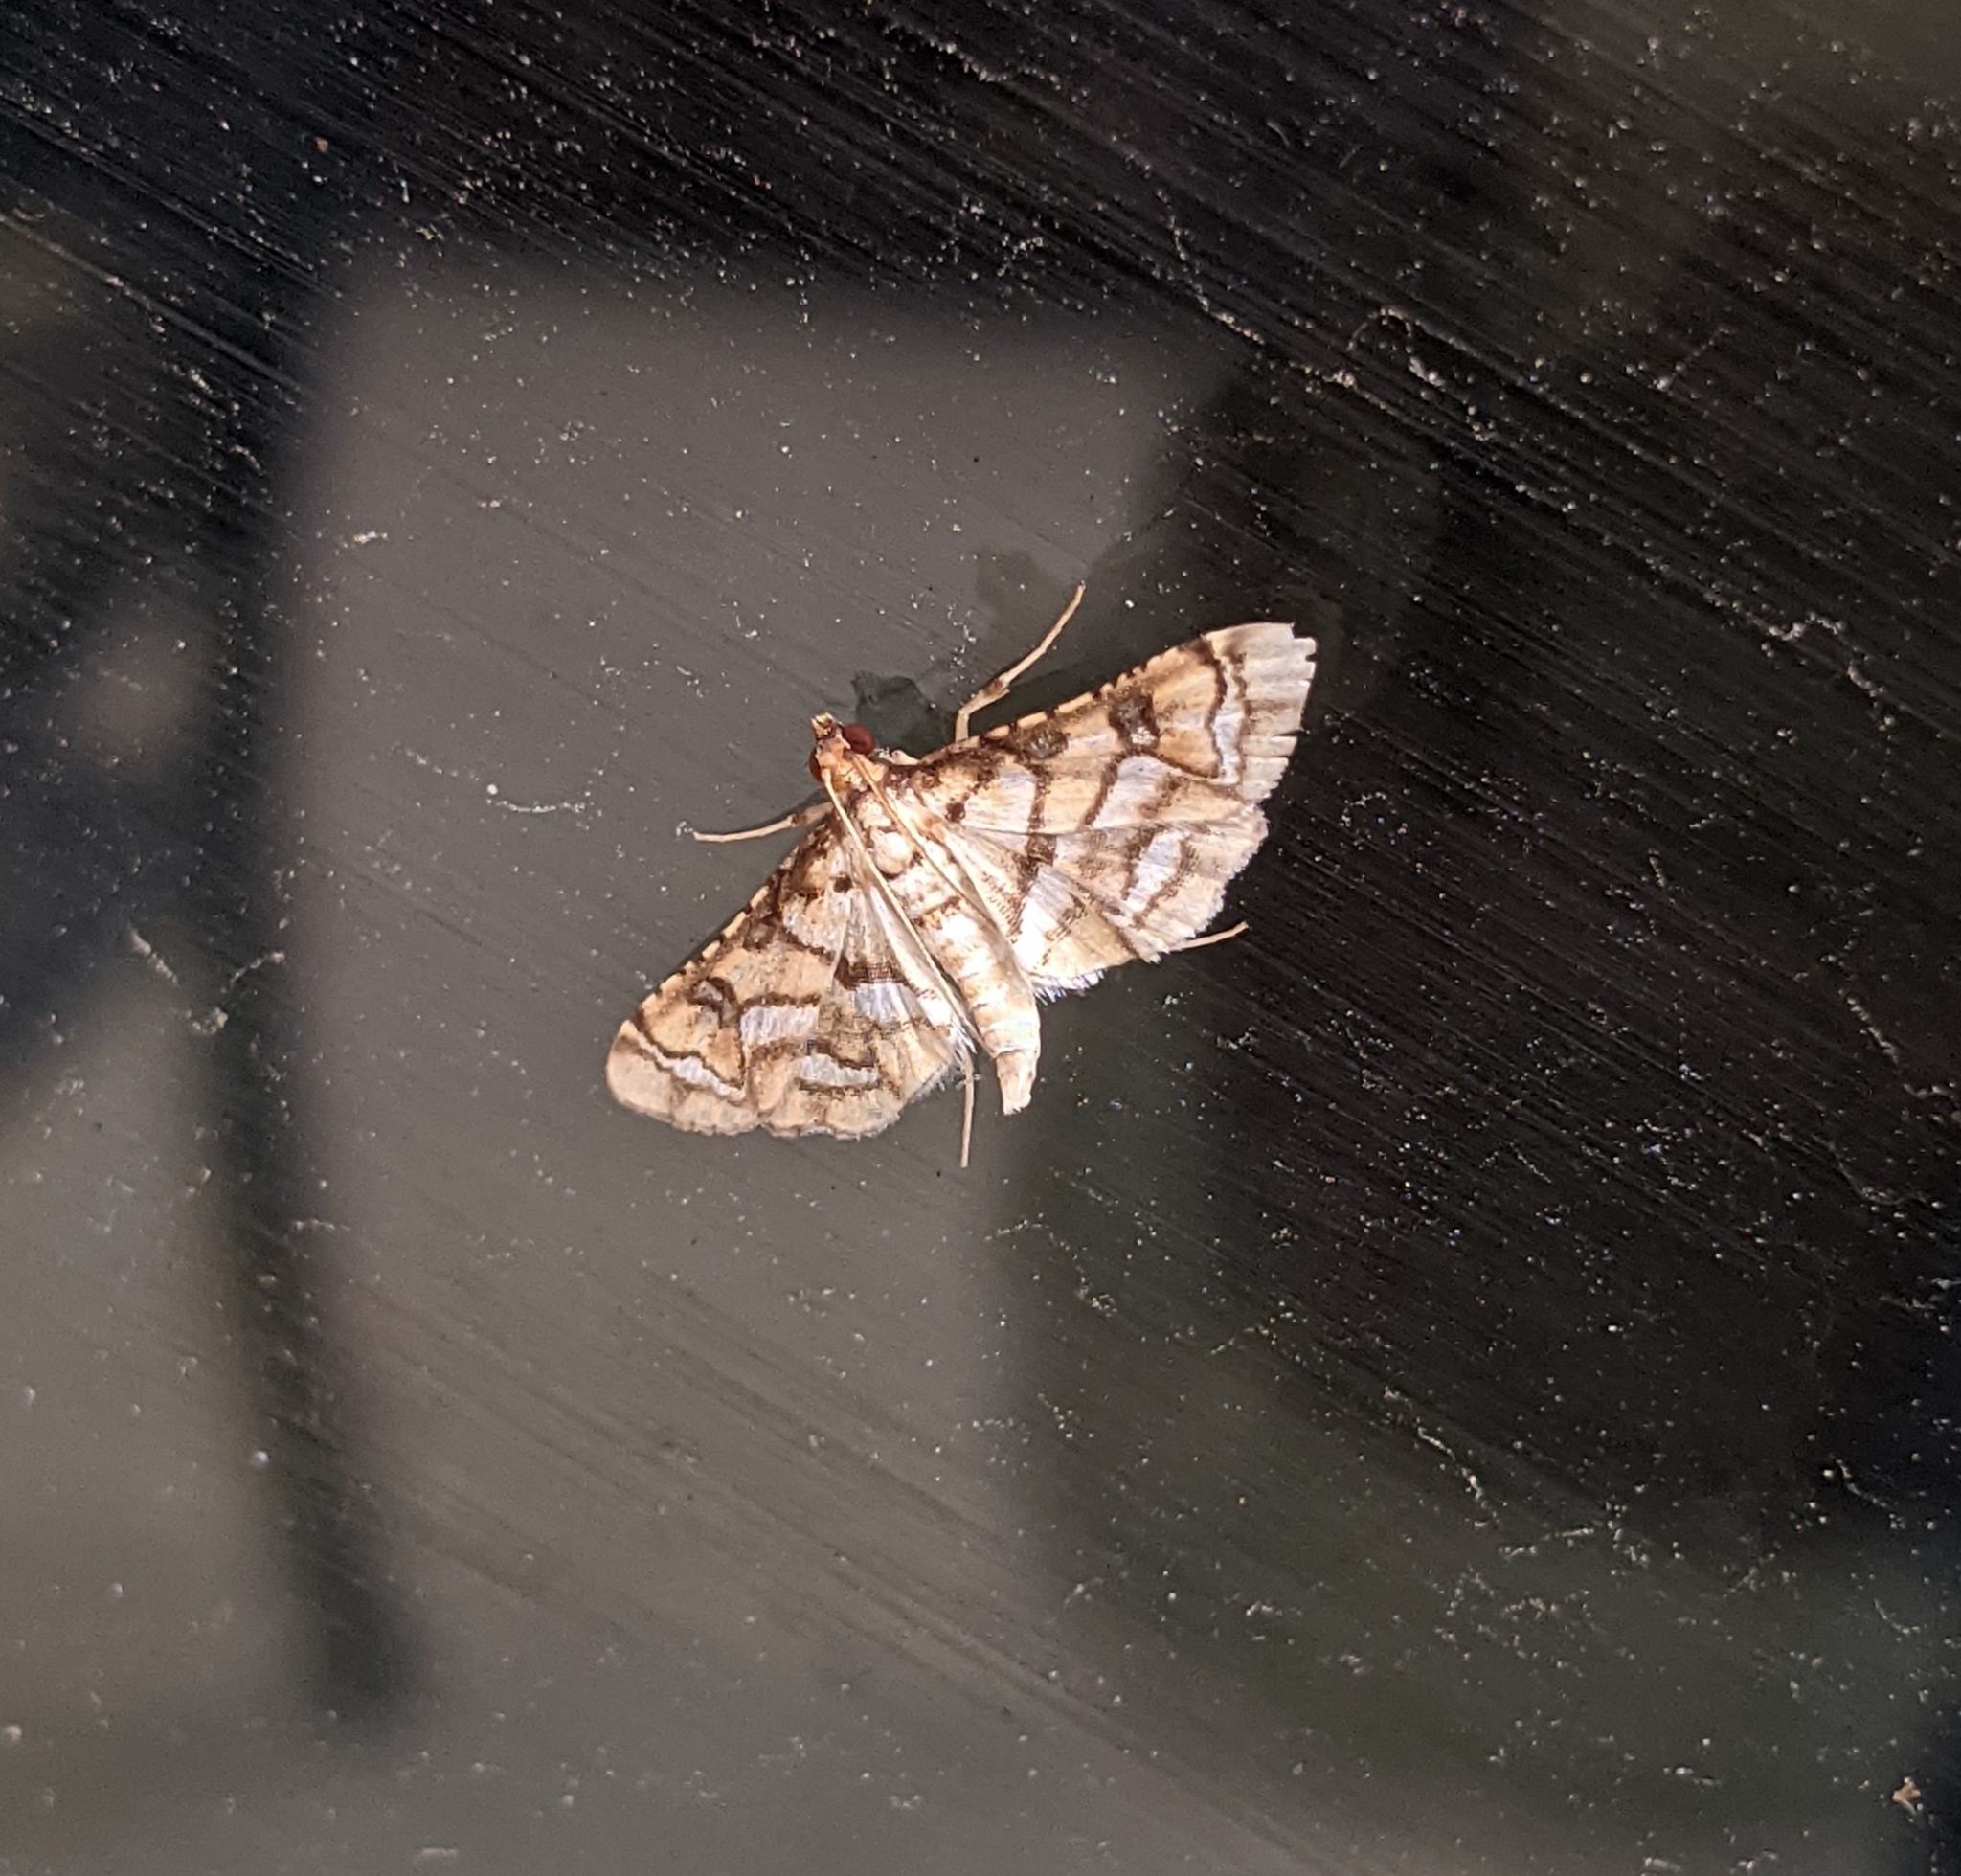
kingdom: Animalia
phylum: Arthropoda
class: Insecta
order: Lepidoptera
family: Crambidae
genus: Hileithia
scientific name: Hileithia magualis
